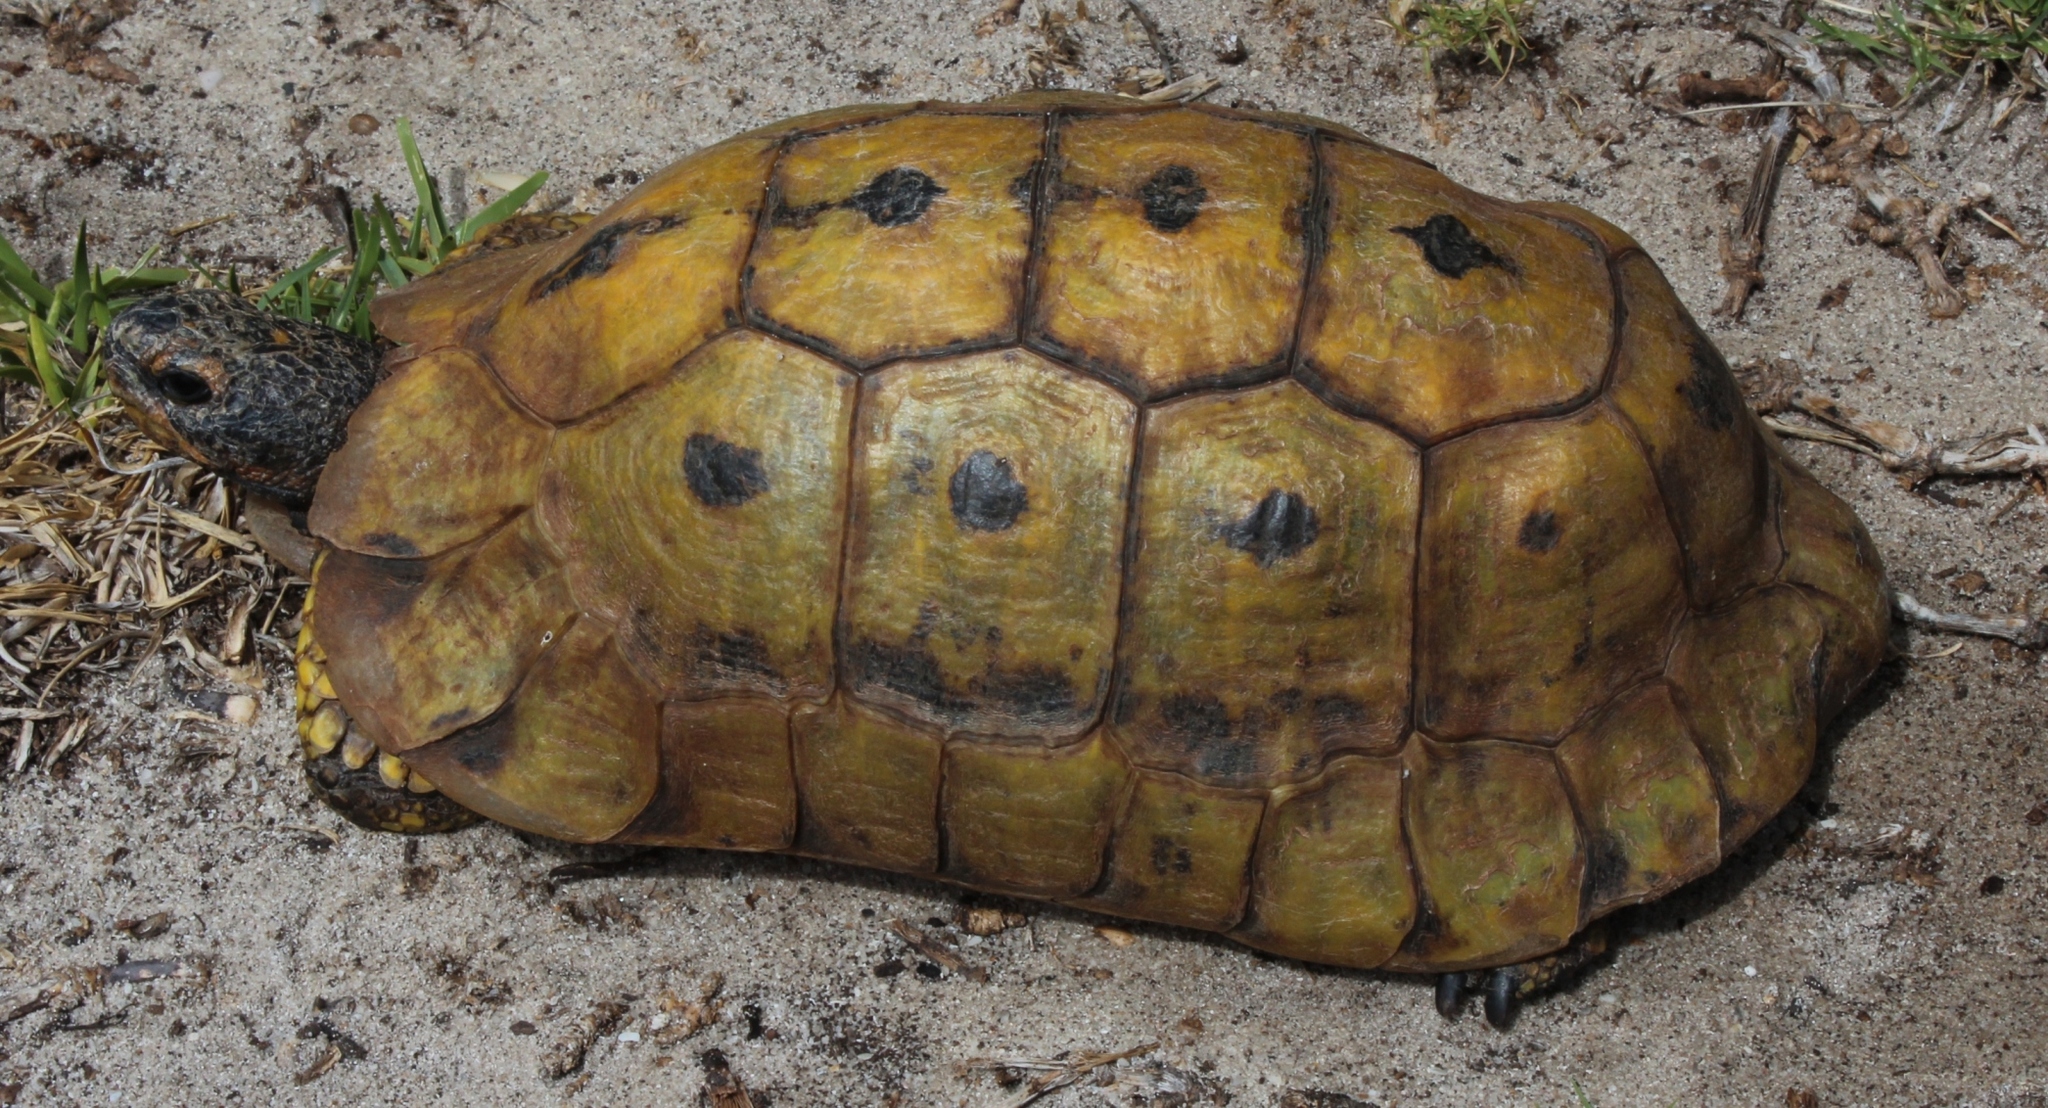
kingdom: Animalia
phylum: Chordata
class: Testudines
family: Testudinidae
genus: Chersina
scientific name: Chersina angulata
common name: South african bowsprit tortoise
